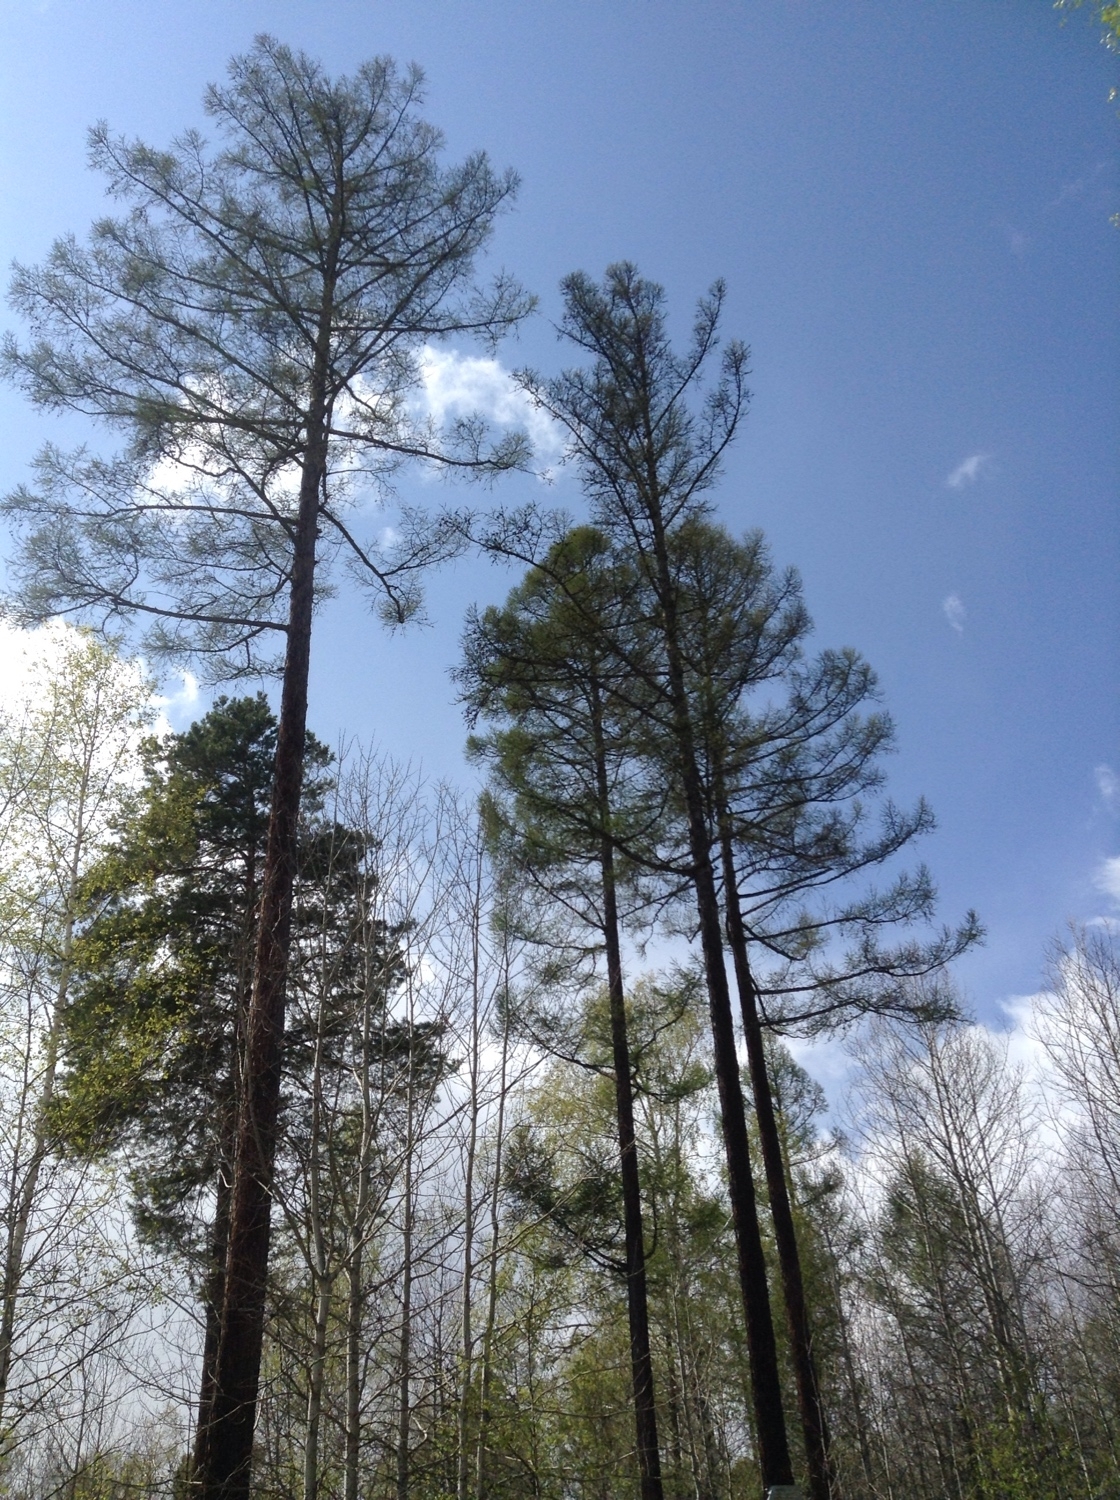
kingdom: Plantae
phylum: Tracheophyta
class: Pinopsida
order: Pinales
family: Pinaceae
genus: Larix
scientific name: Larix sibirica
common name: Siberian larch
